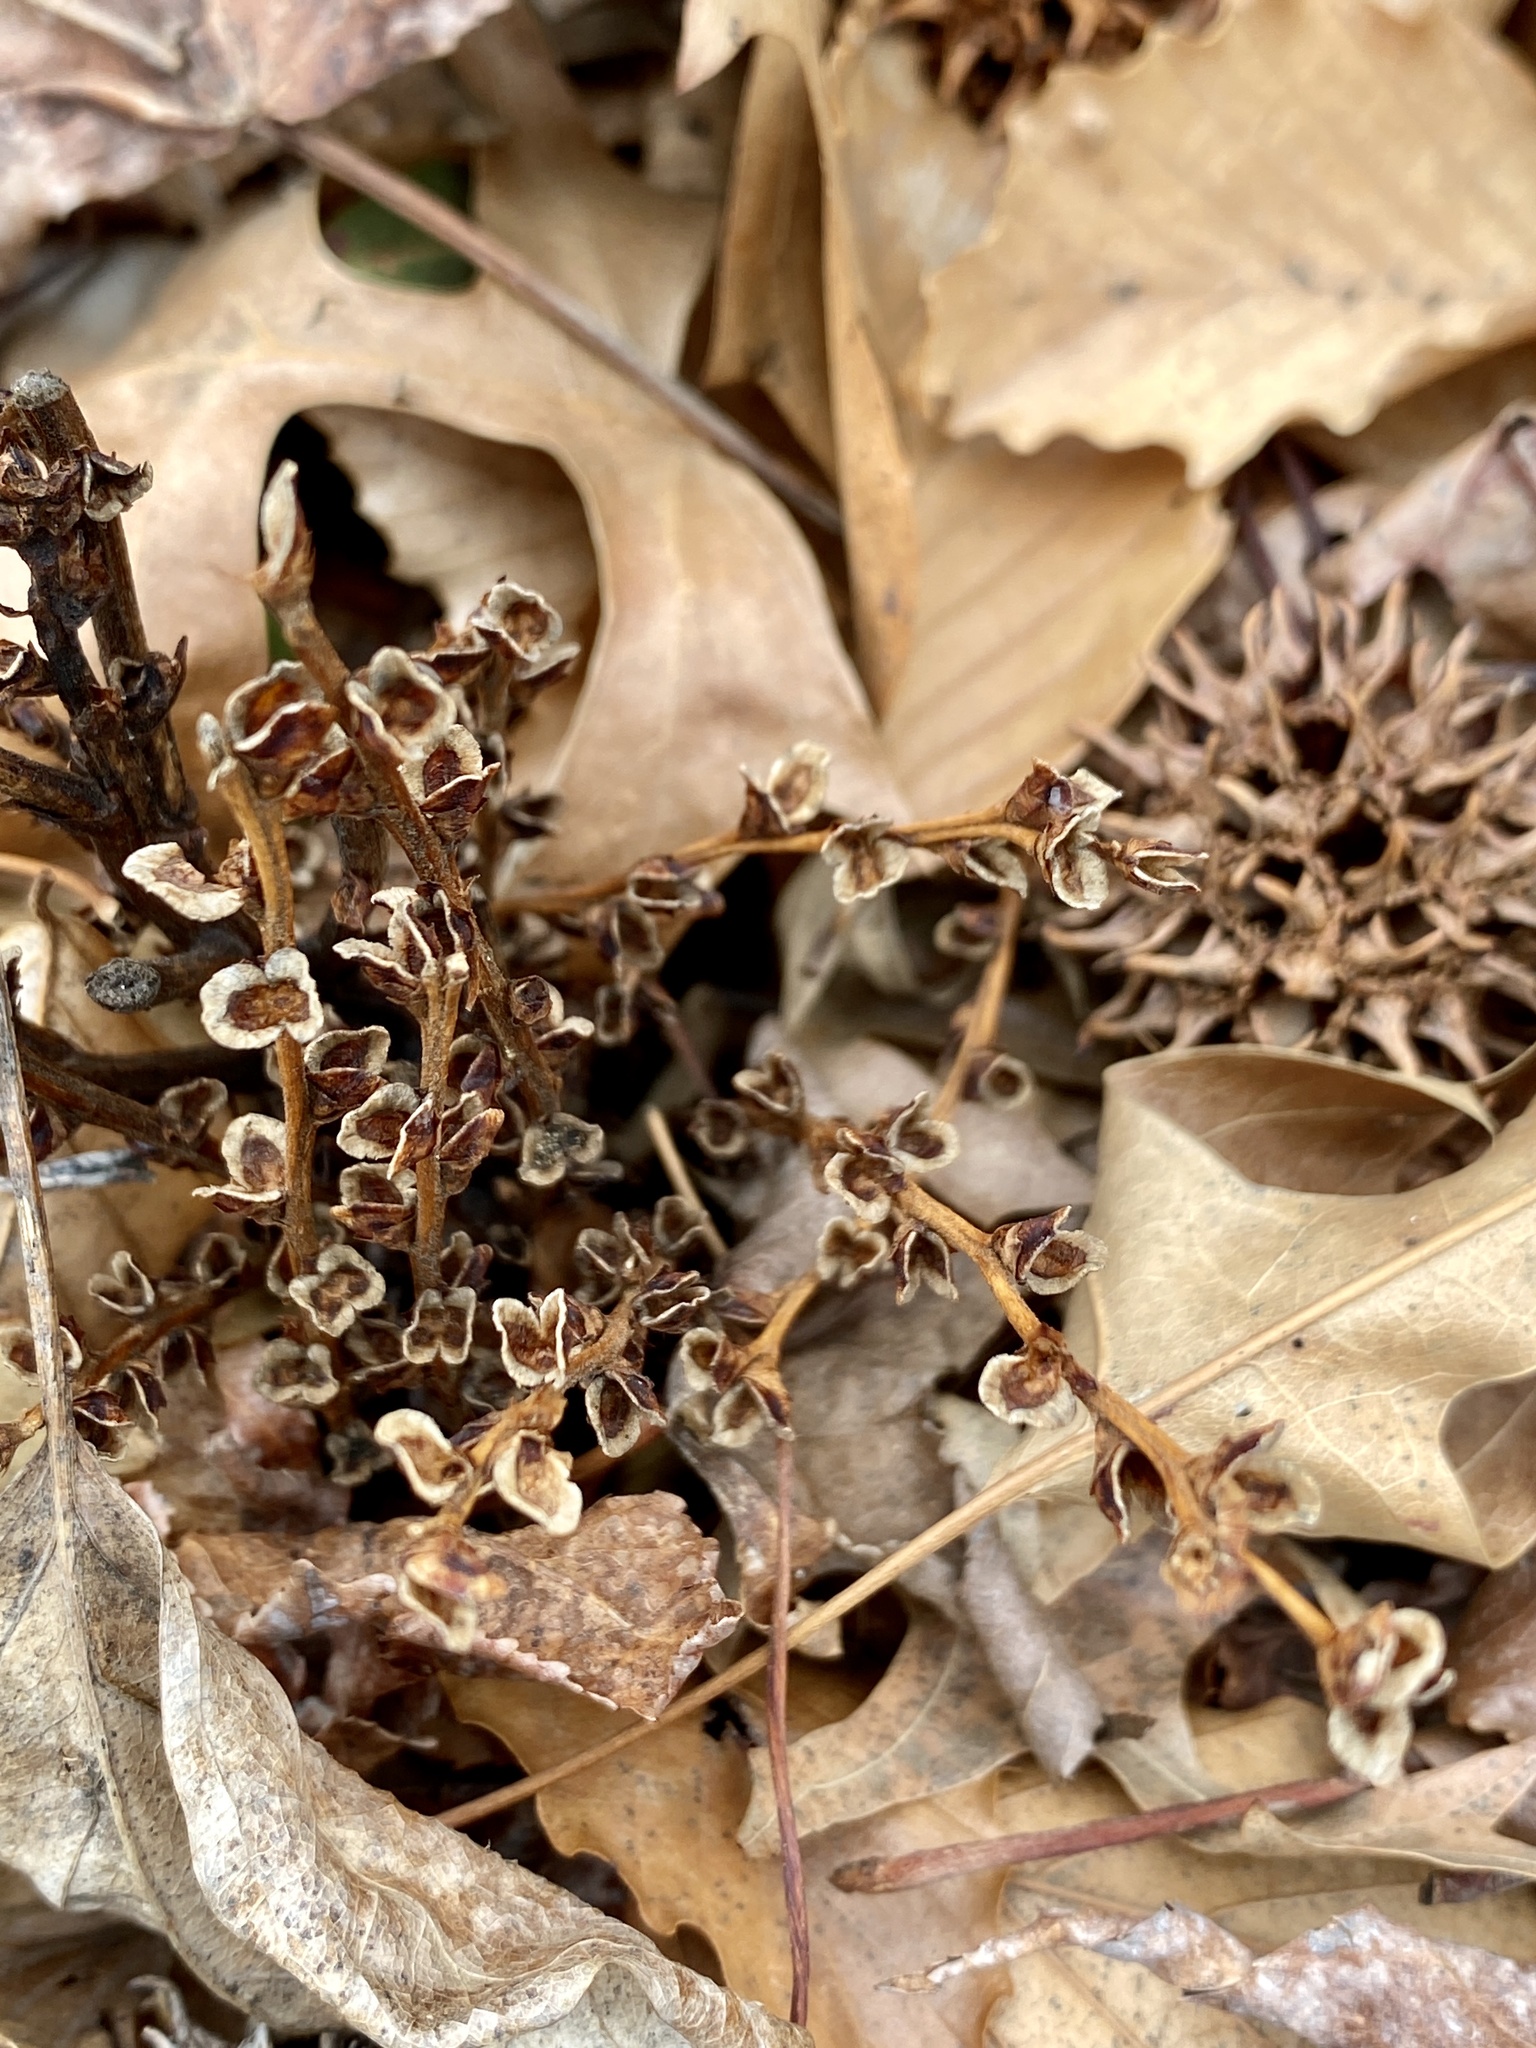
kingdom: Plantae
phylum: Tracheophyta
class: Magnoliopsida
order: Lamiales
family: Orobanchaceae
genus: Epifagus
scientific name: Epifagus virginiana
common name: Beechdrops
